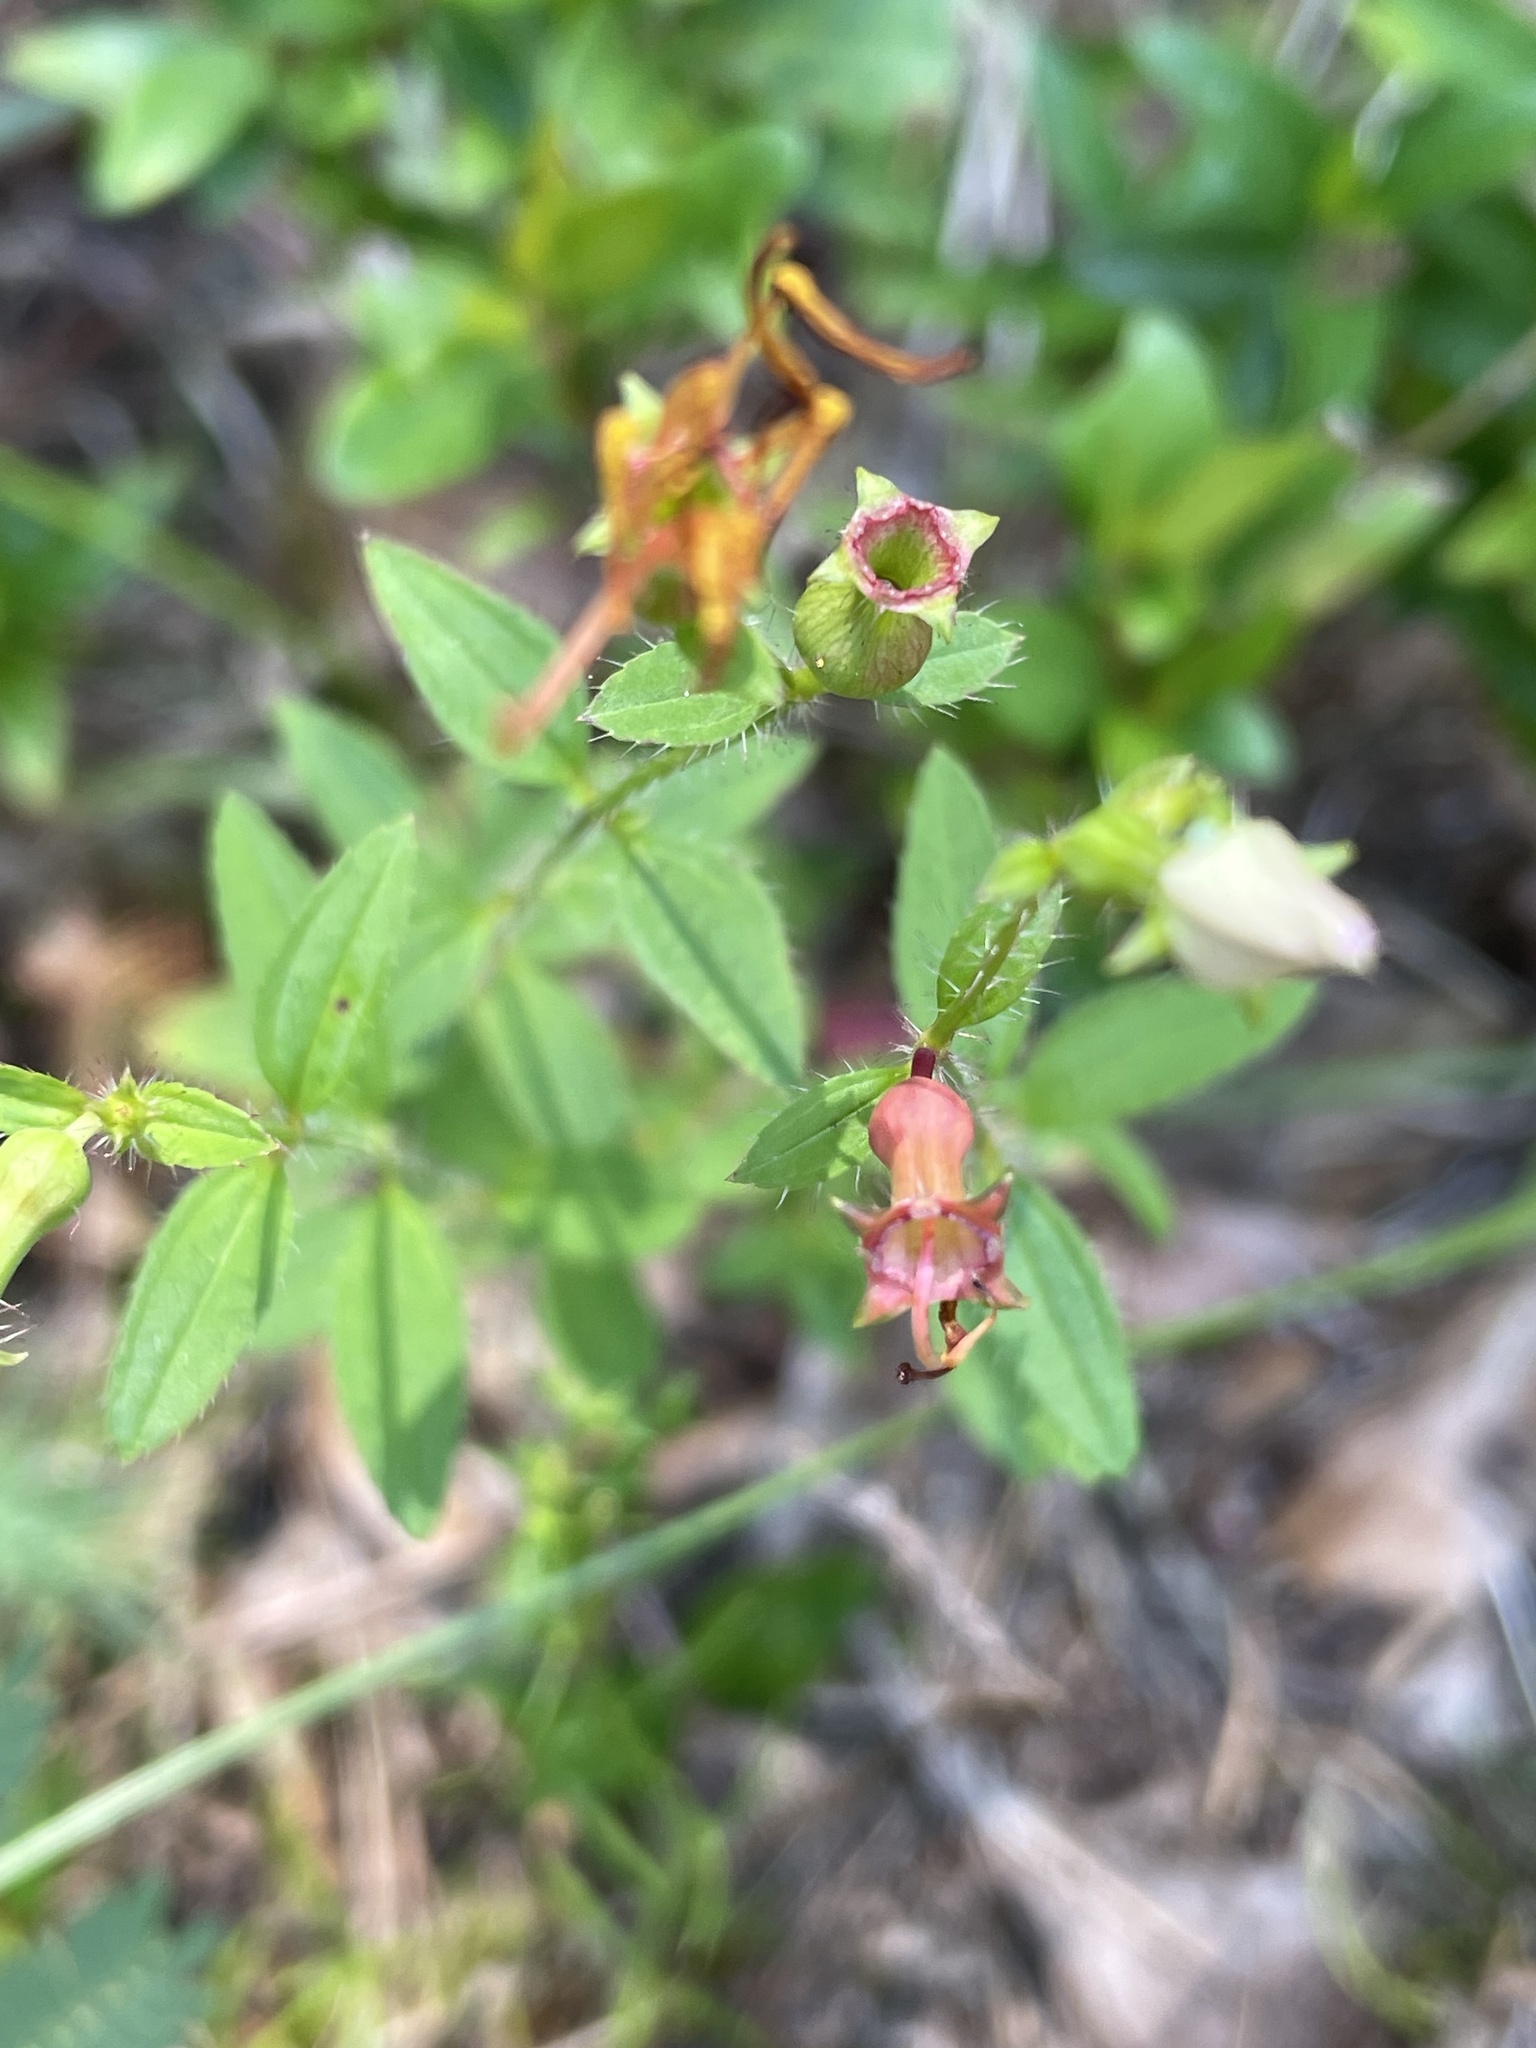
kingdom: Plantae
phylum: Tracheophyta
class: Magnoliopsida
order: Myrtales
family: Melastomataceae
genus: Rhexia
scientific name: Rhexia mariana
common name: Dull meadow-pitcher
